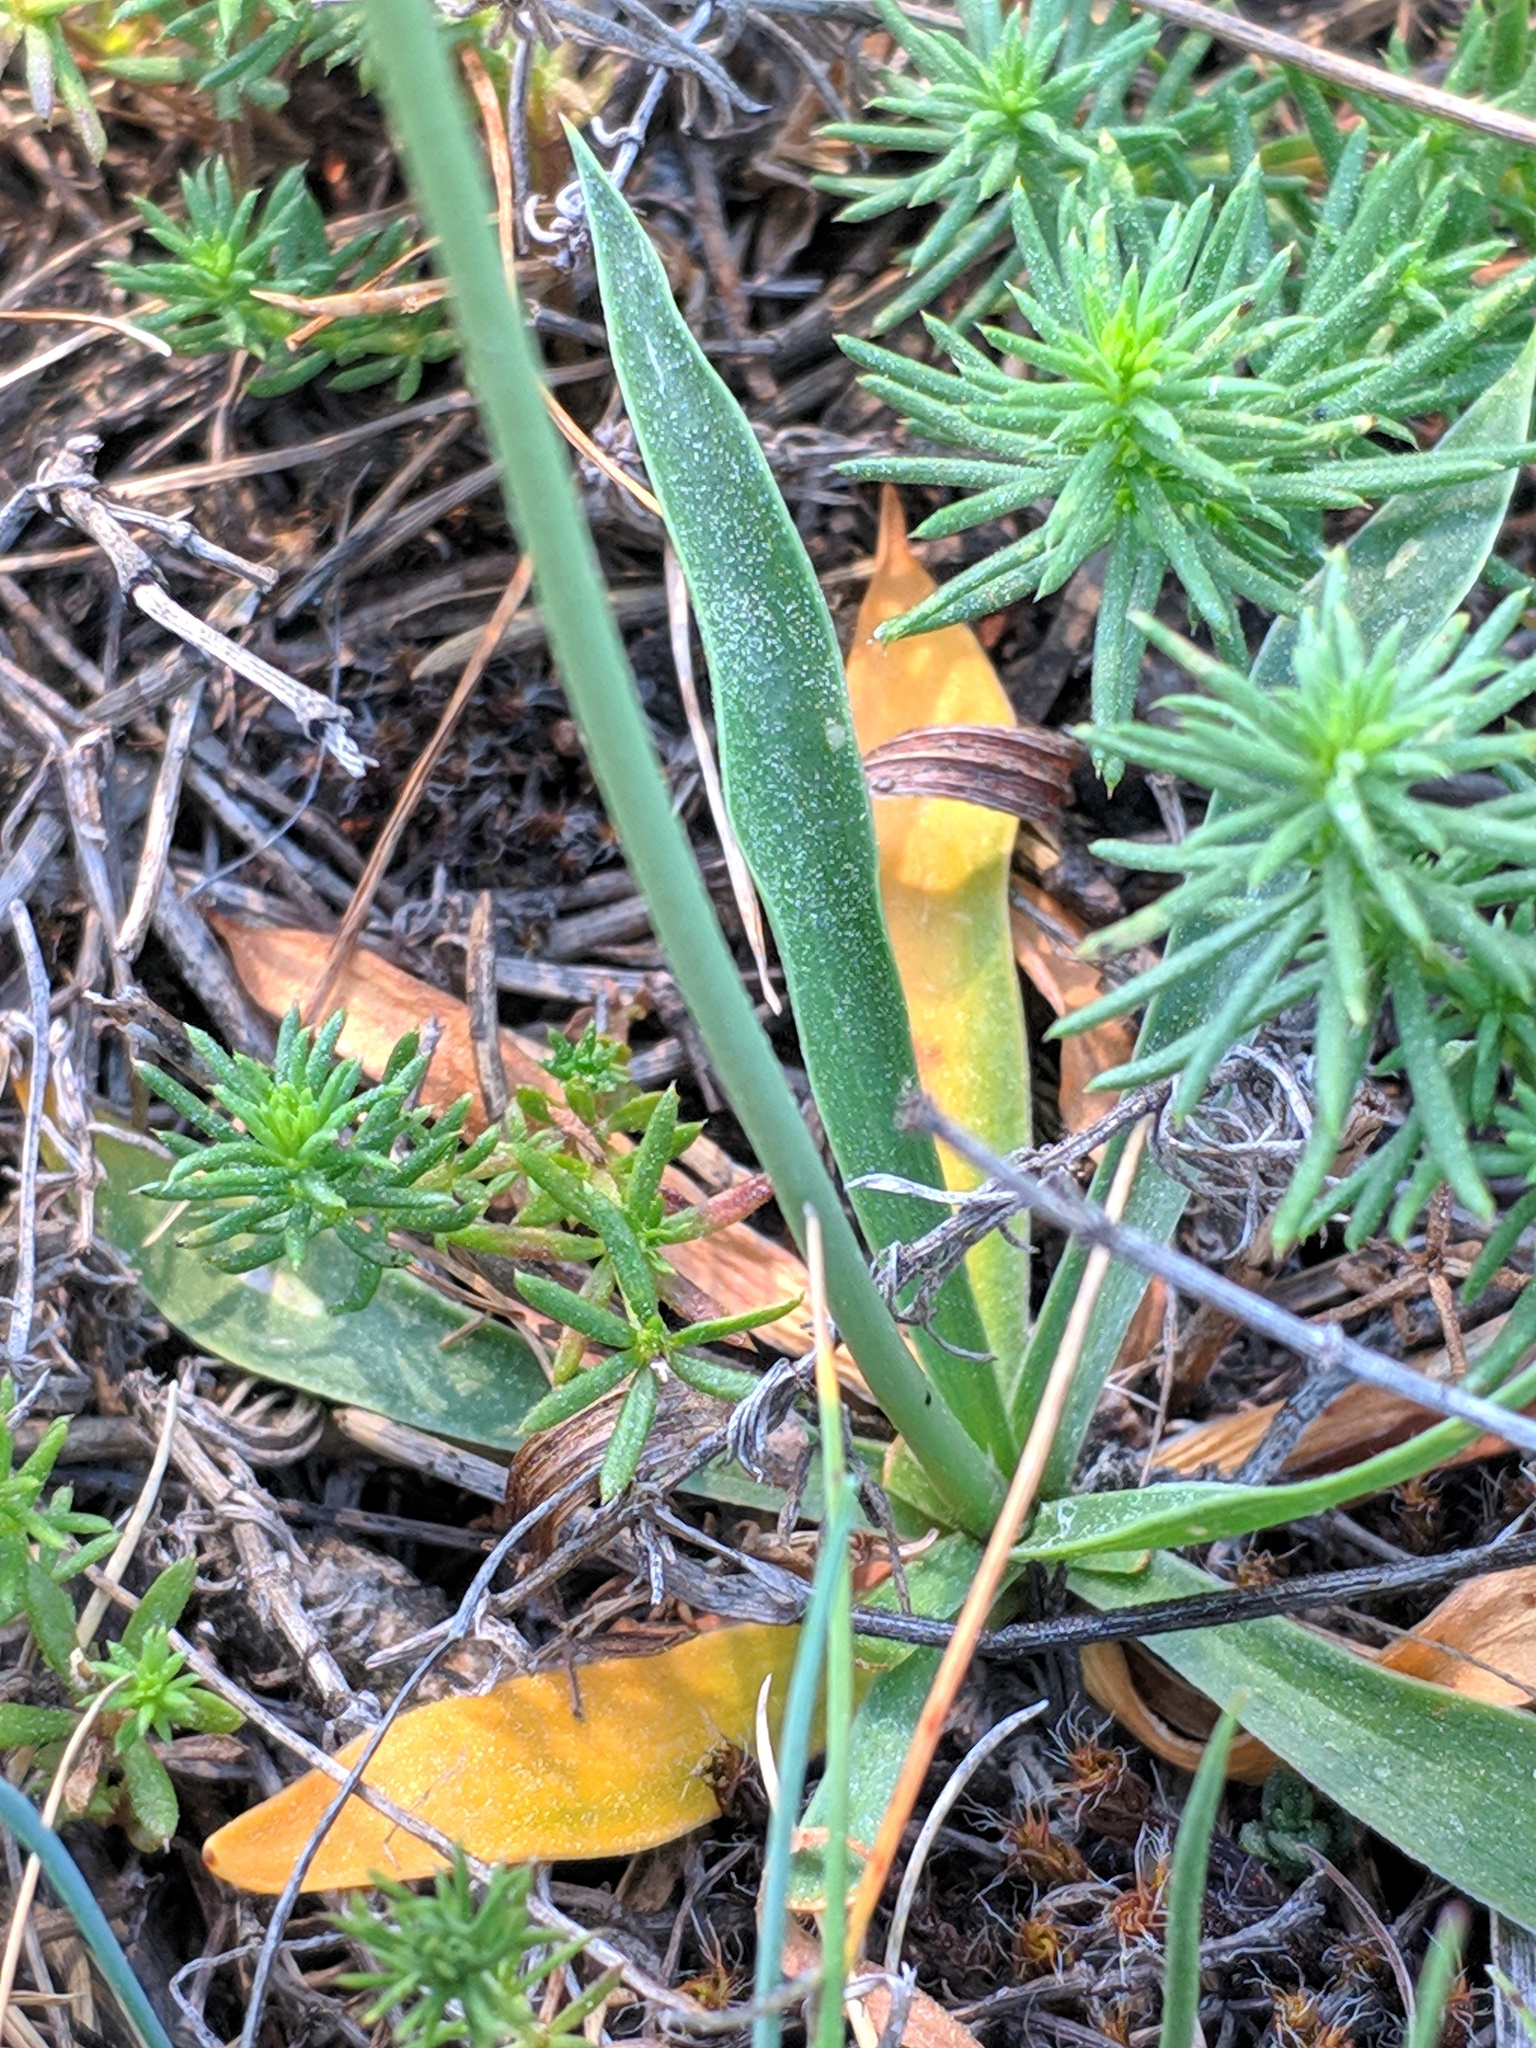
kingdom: Plantae
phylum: Tracheophyta
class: Magnoliopsida
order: Caryophyllales
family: Plumbaginaceae
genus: Armeria
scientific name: Armeria alliacea
